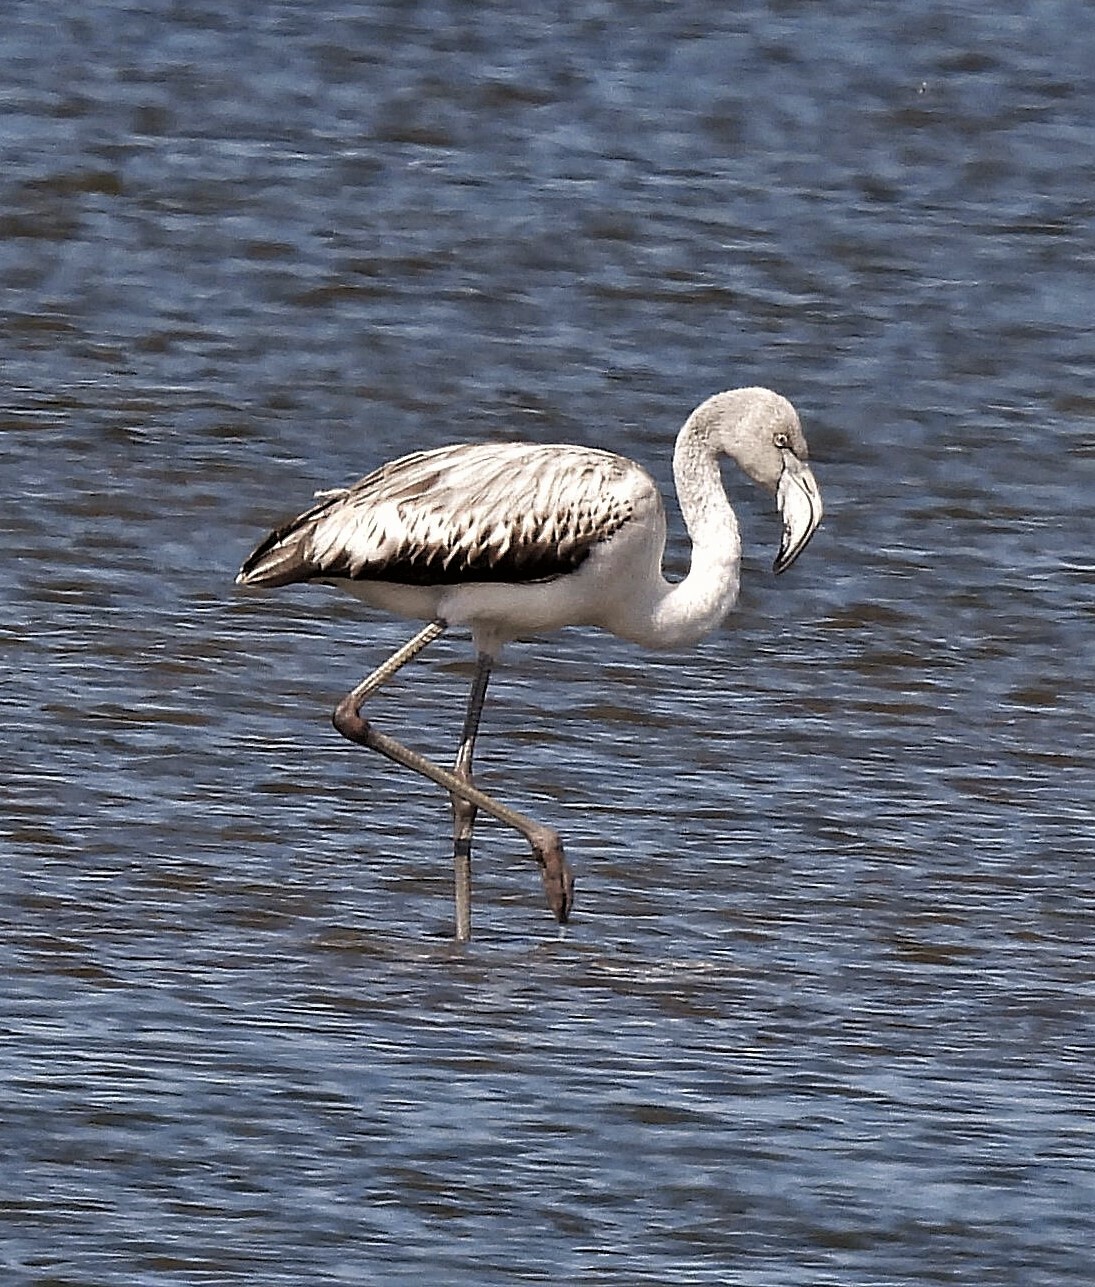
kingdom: Animalia
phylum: Chordata
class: Aves
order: Phoenicopteriformes
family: Phoenicopteridae
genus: Phoenicopterus
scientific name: Phoenicopterus chilensis
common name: Chilean flamingo
